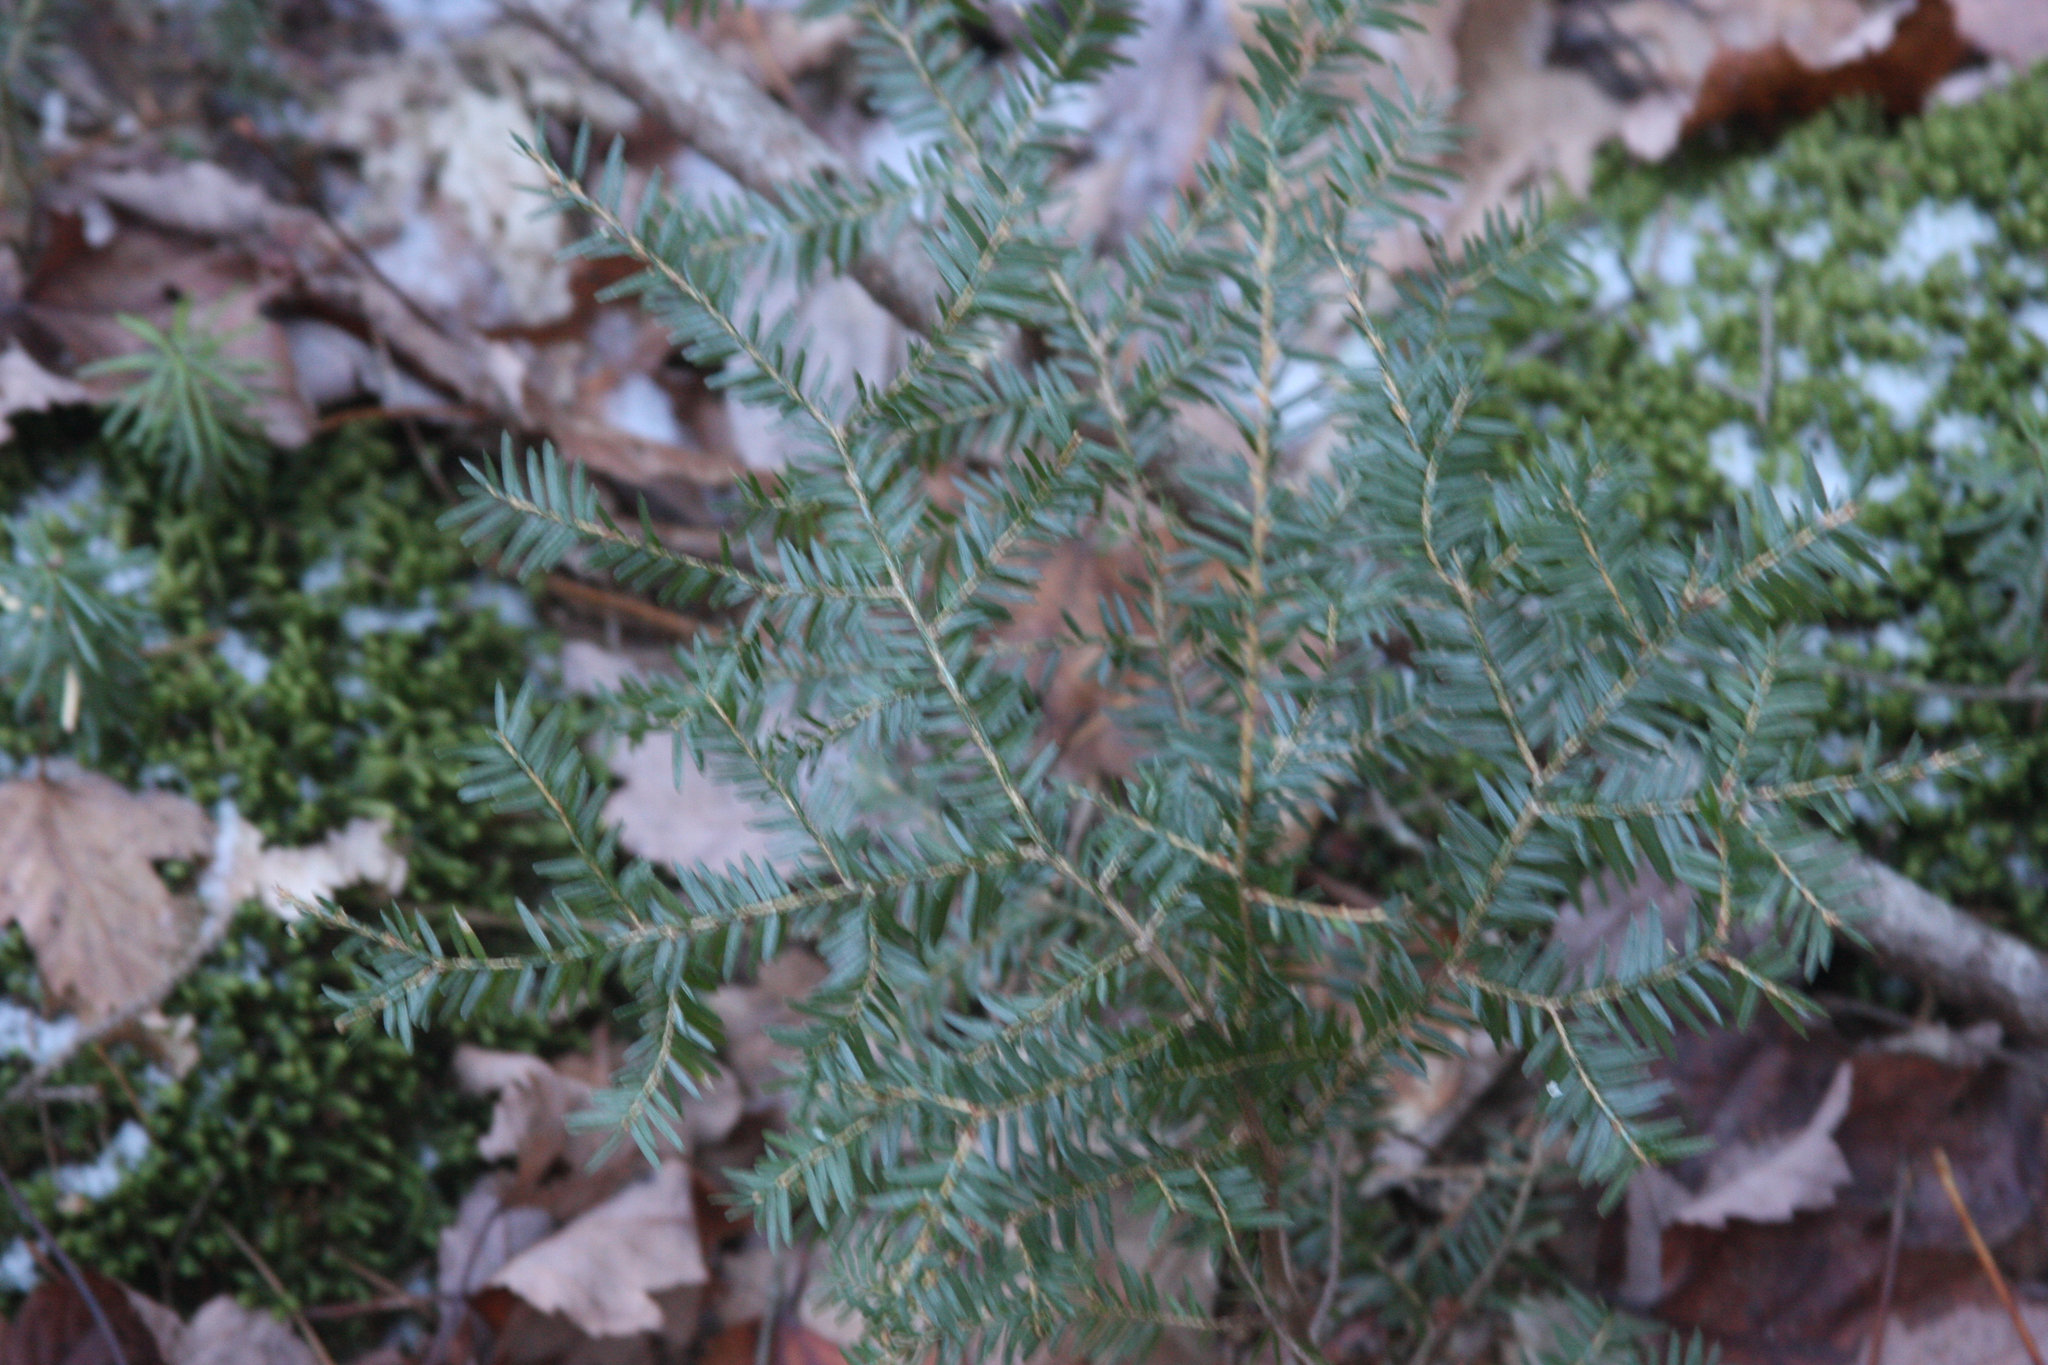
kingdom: Plantae
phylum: Tracheophyta
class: Pinopsida
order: Pinales
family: Pinaceae
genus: Tsuga
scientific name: Tsuga canadensis
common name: Eastern hemlock
